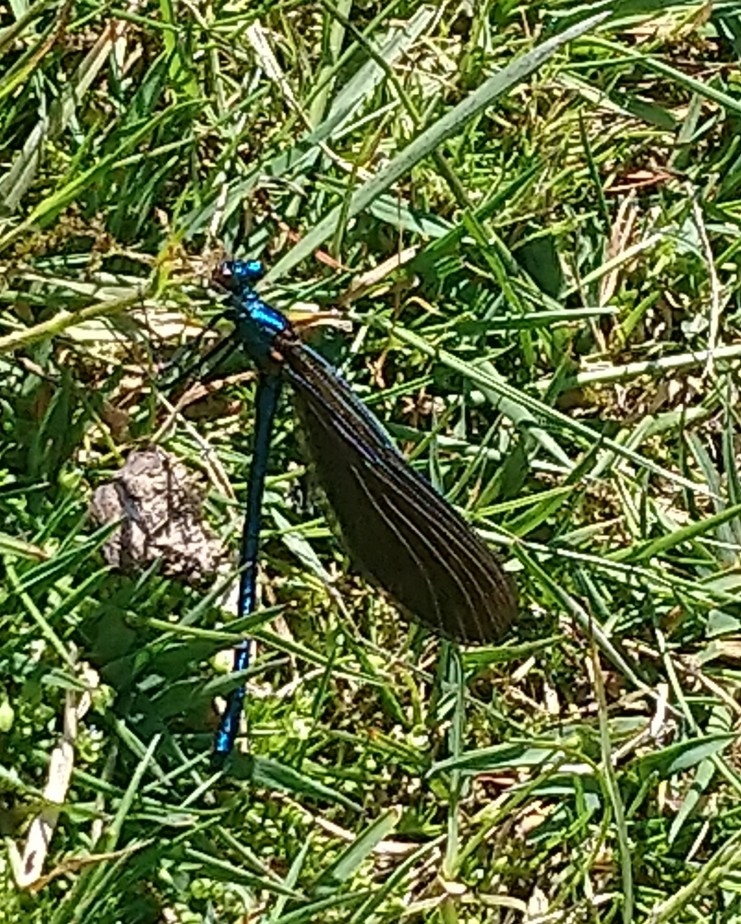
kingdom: Animalia
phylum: Arthropoda
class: Insecta
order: Odonata
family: Calopterygidae
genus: Calopteryx
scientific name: Calopteryx virgo
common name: Beautiful demoiselle
